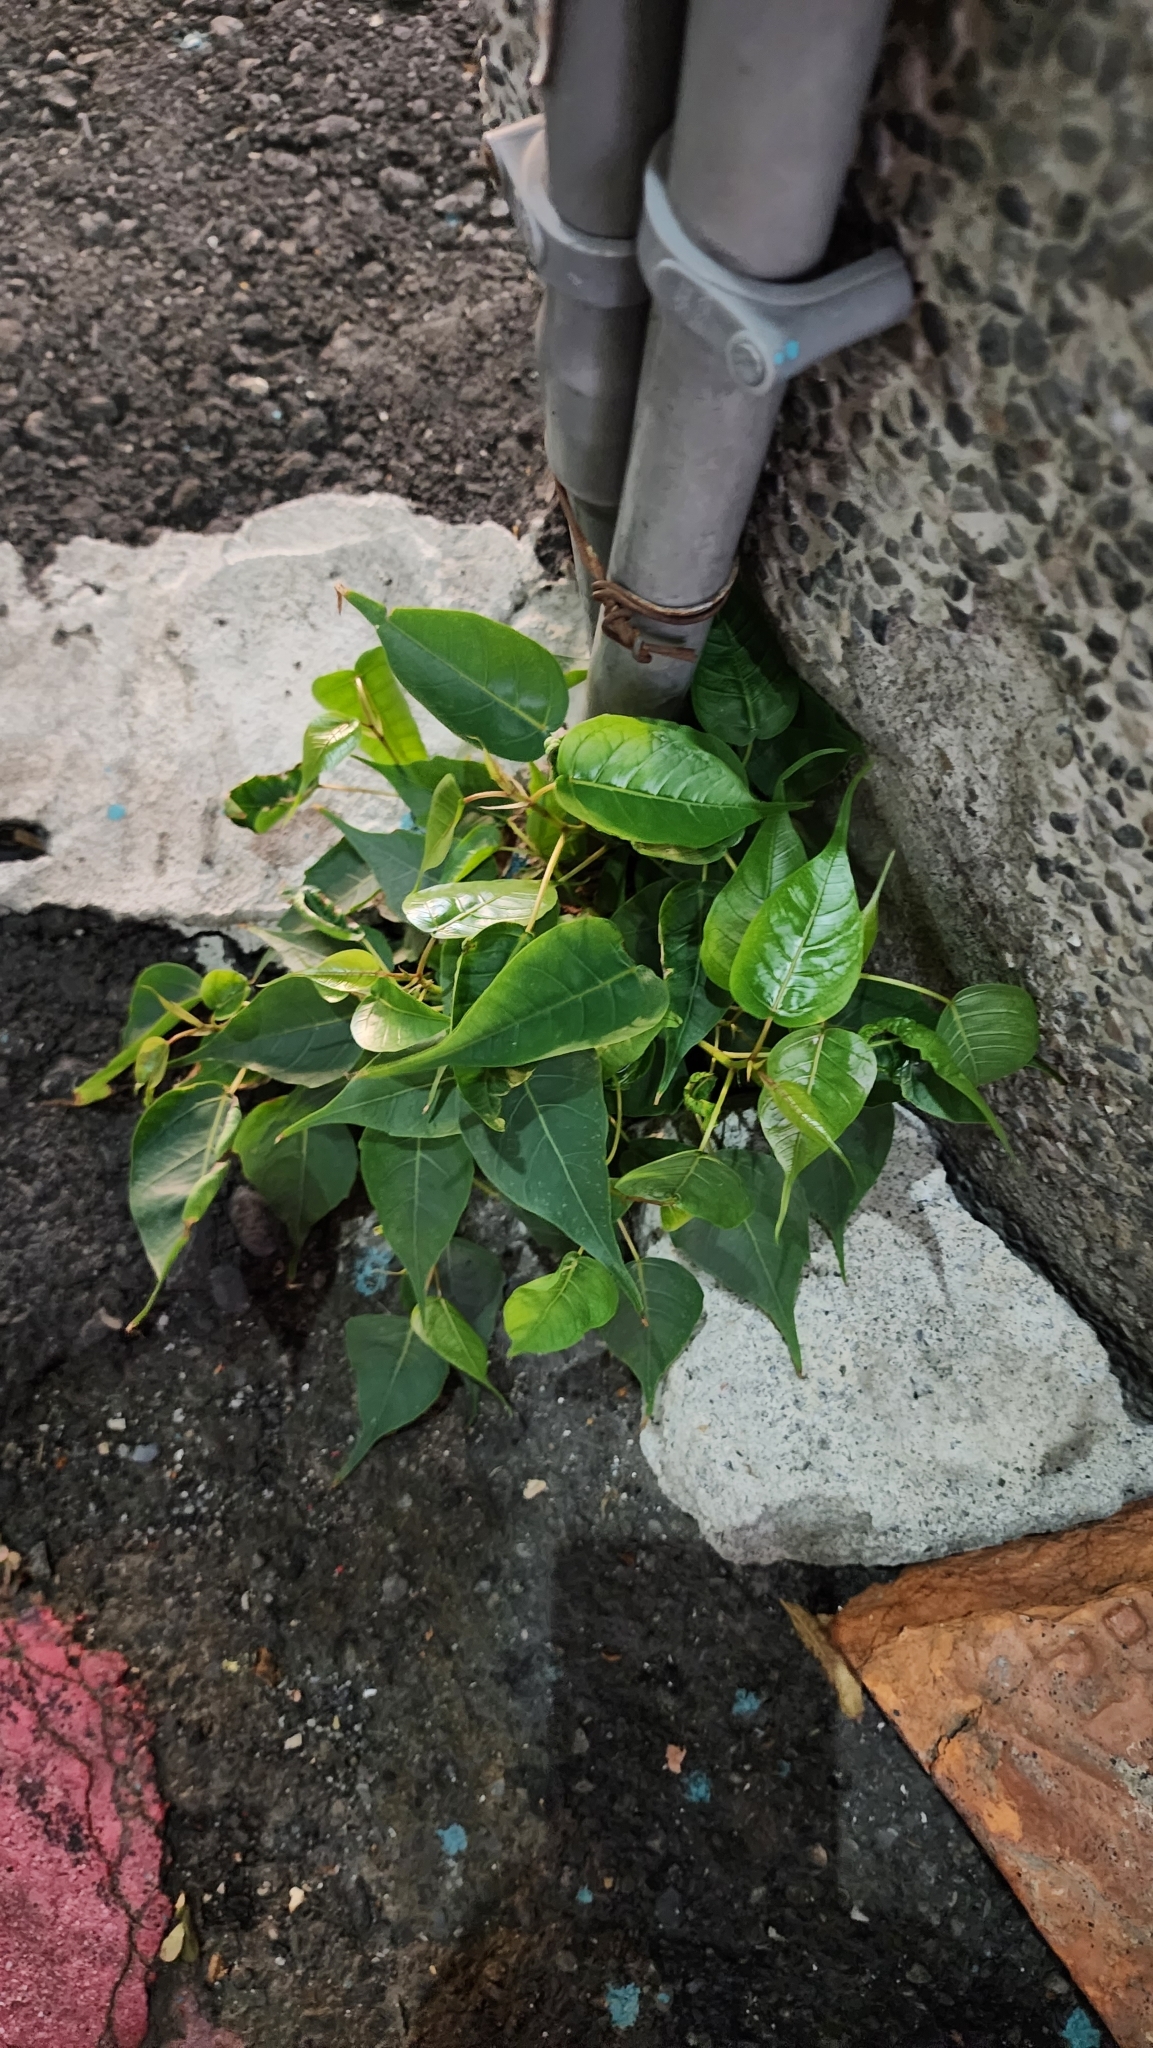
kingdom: Plantae
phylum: Tracheophyta
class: Magnoliopsida
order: Rosales
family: Moraceae
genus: Ficus
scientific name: Ficus religiosa
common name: Bodhi tree
